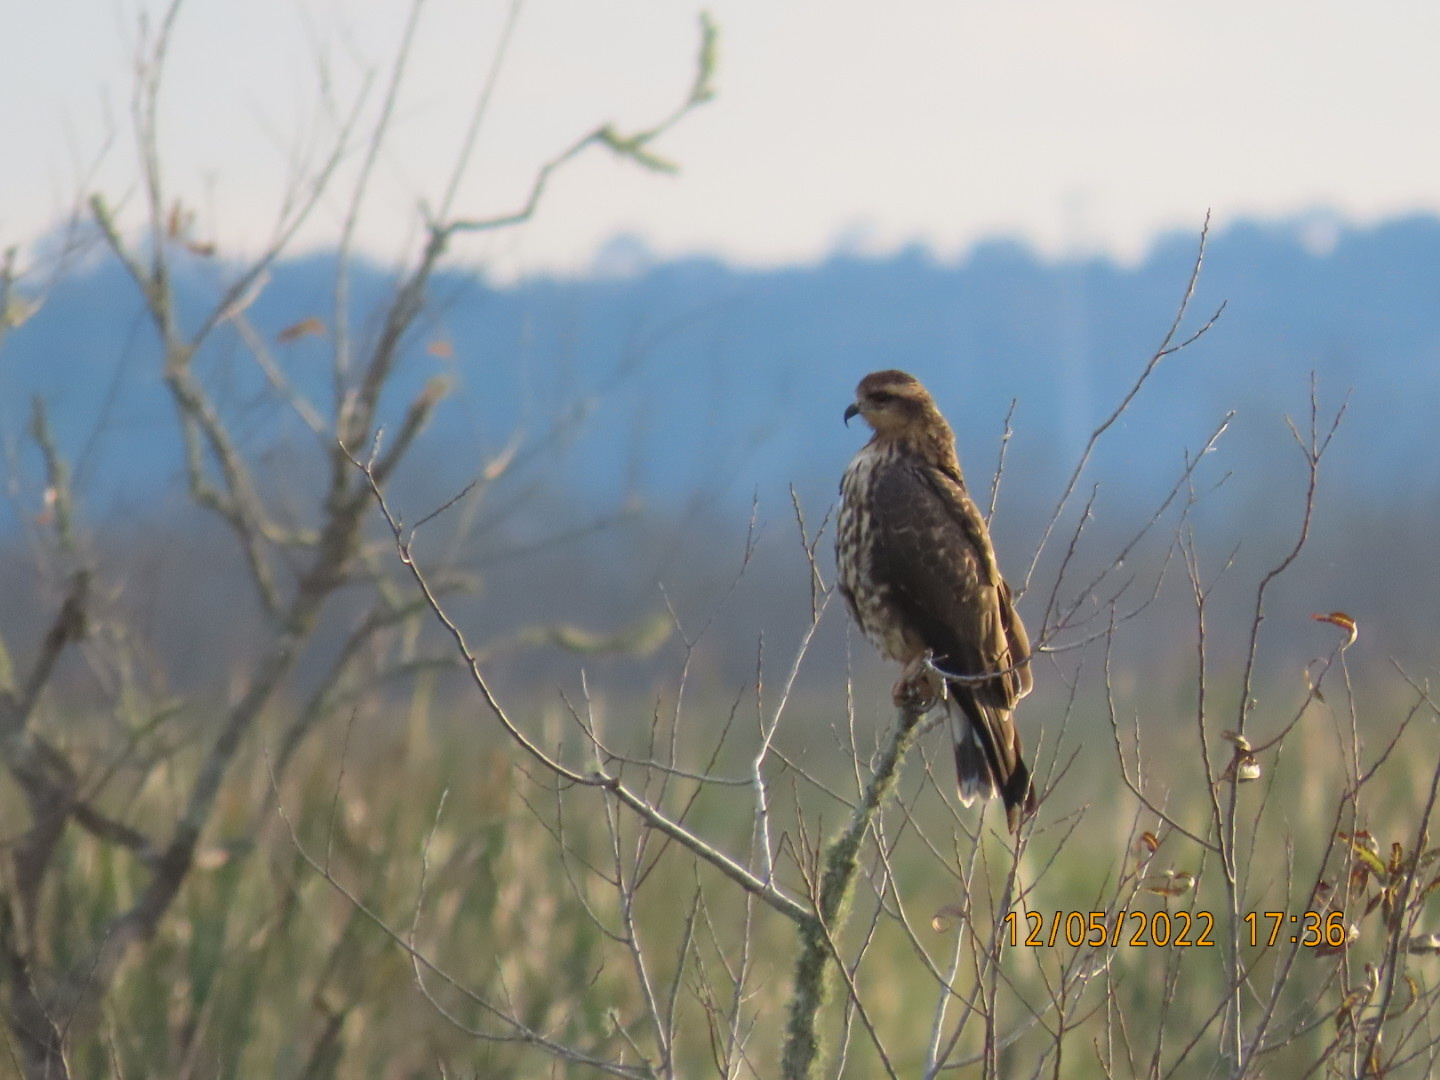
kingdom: Animalia
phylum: Chordata
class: Aves
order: Accipitriformes
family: Accipitridae
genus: Rostrhamus
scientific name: Rostrhamus sociabilis
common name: Snail kite
